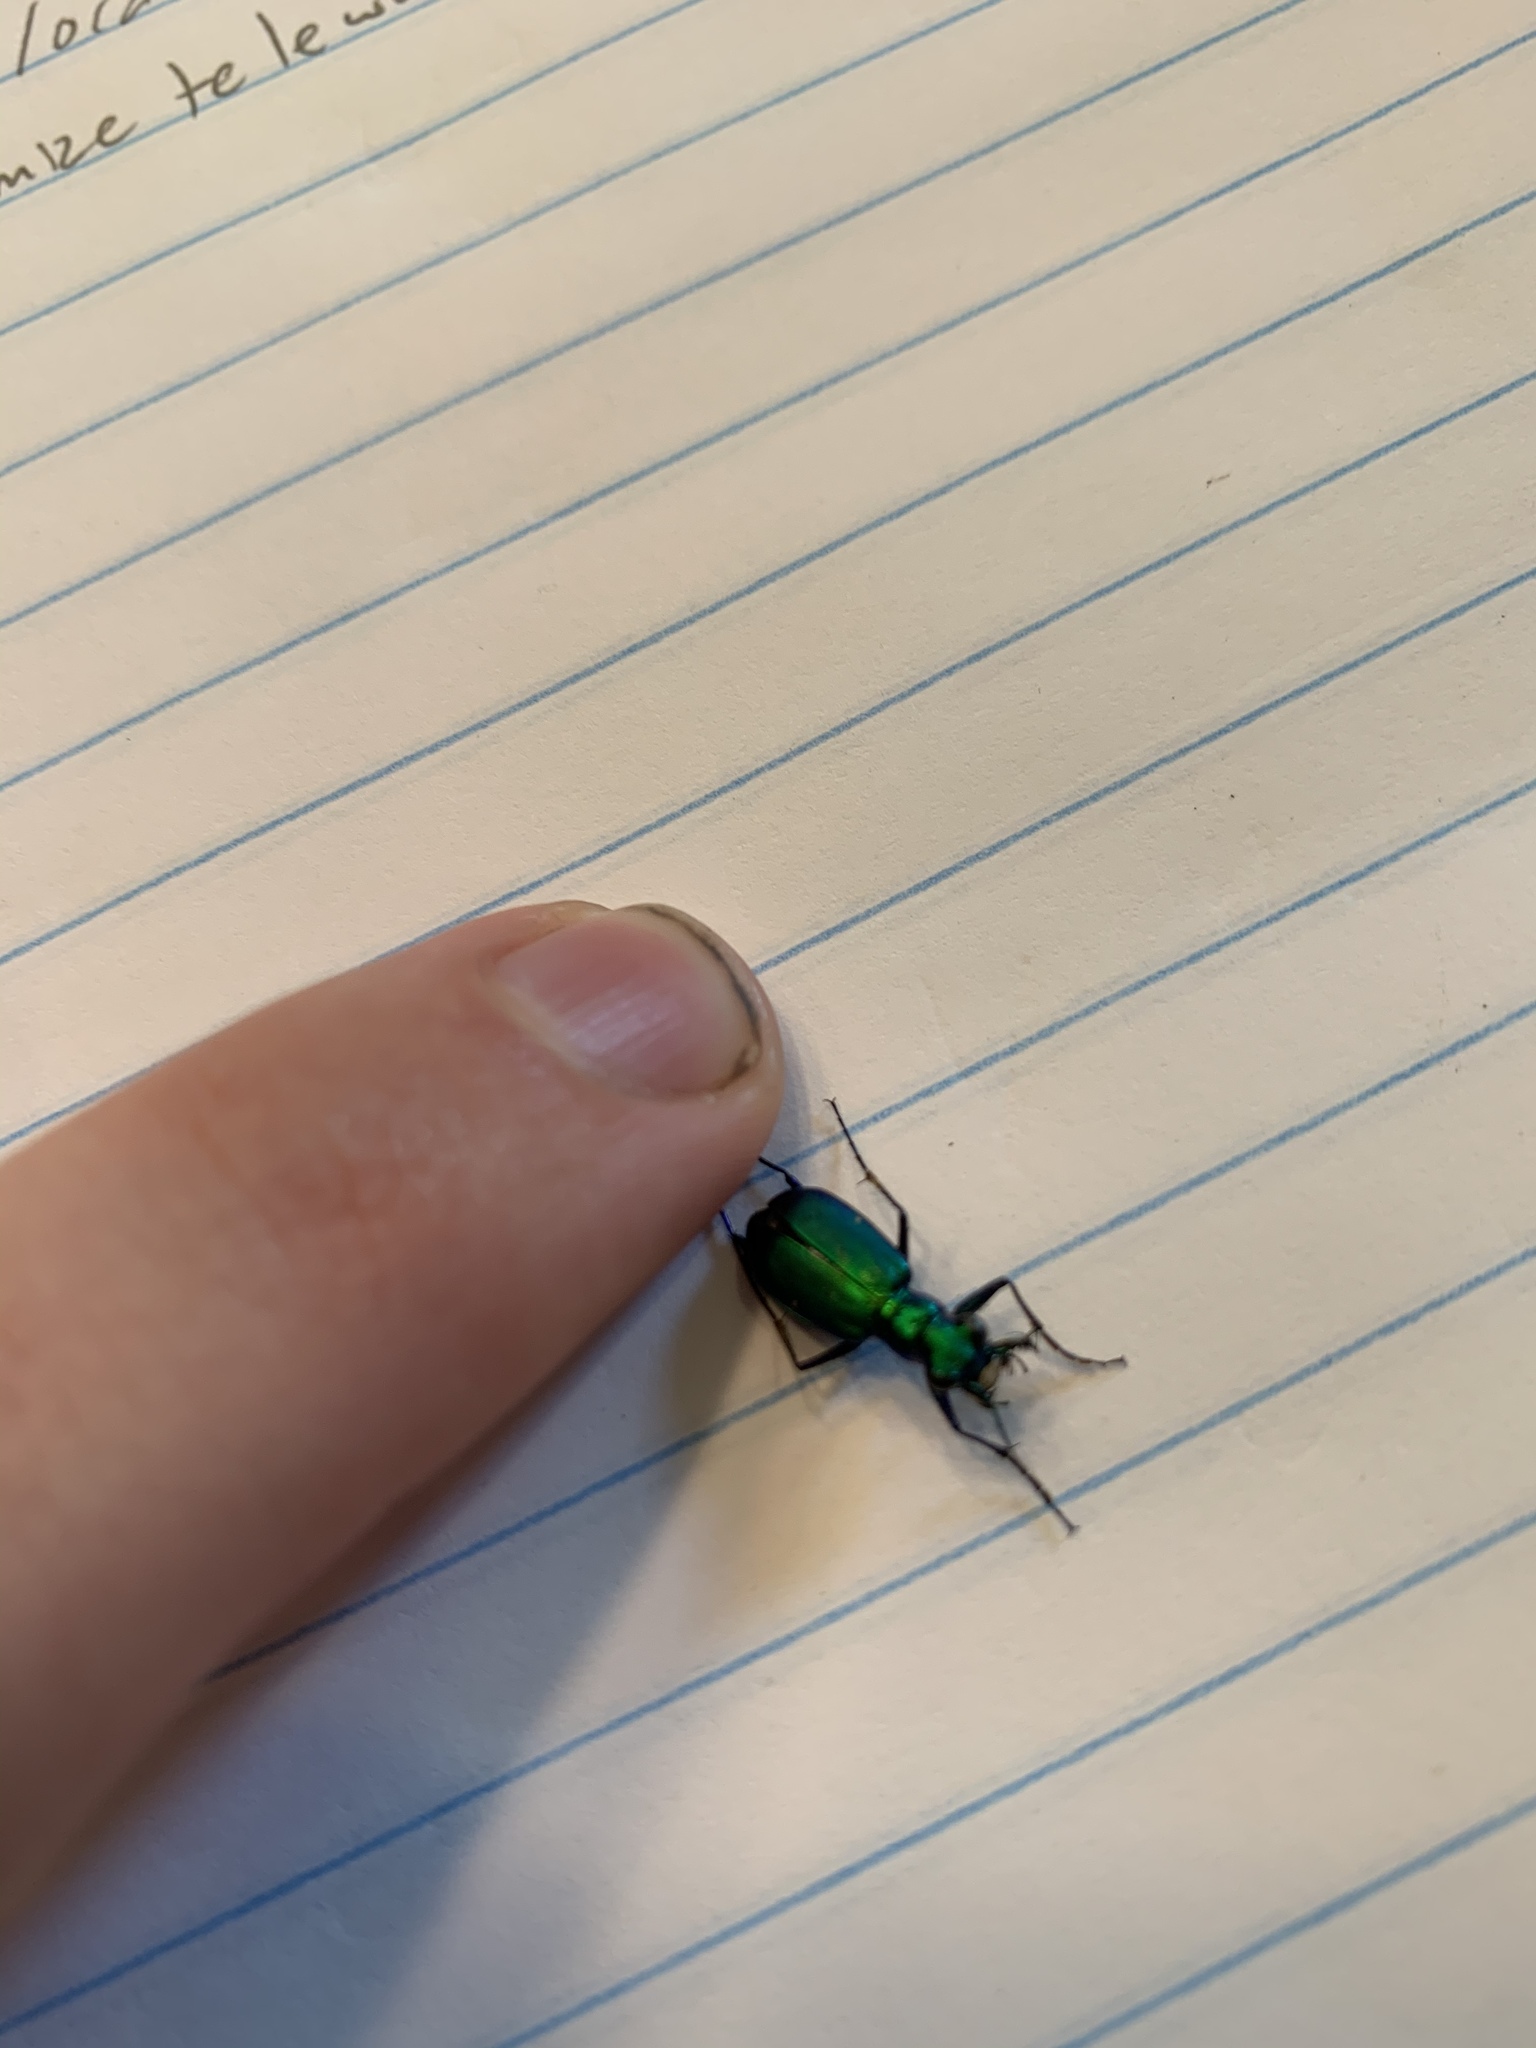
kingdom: Animalia
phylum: Arthropoda
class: Insecta
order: Coleoptera
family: Carabidae
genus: Cicindela
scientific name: Cicindela sexguttata
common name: Six-spotted tiger beetle
